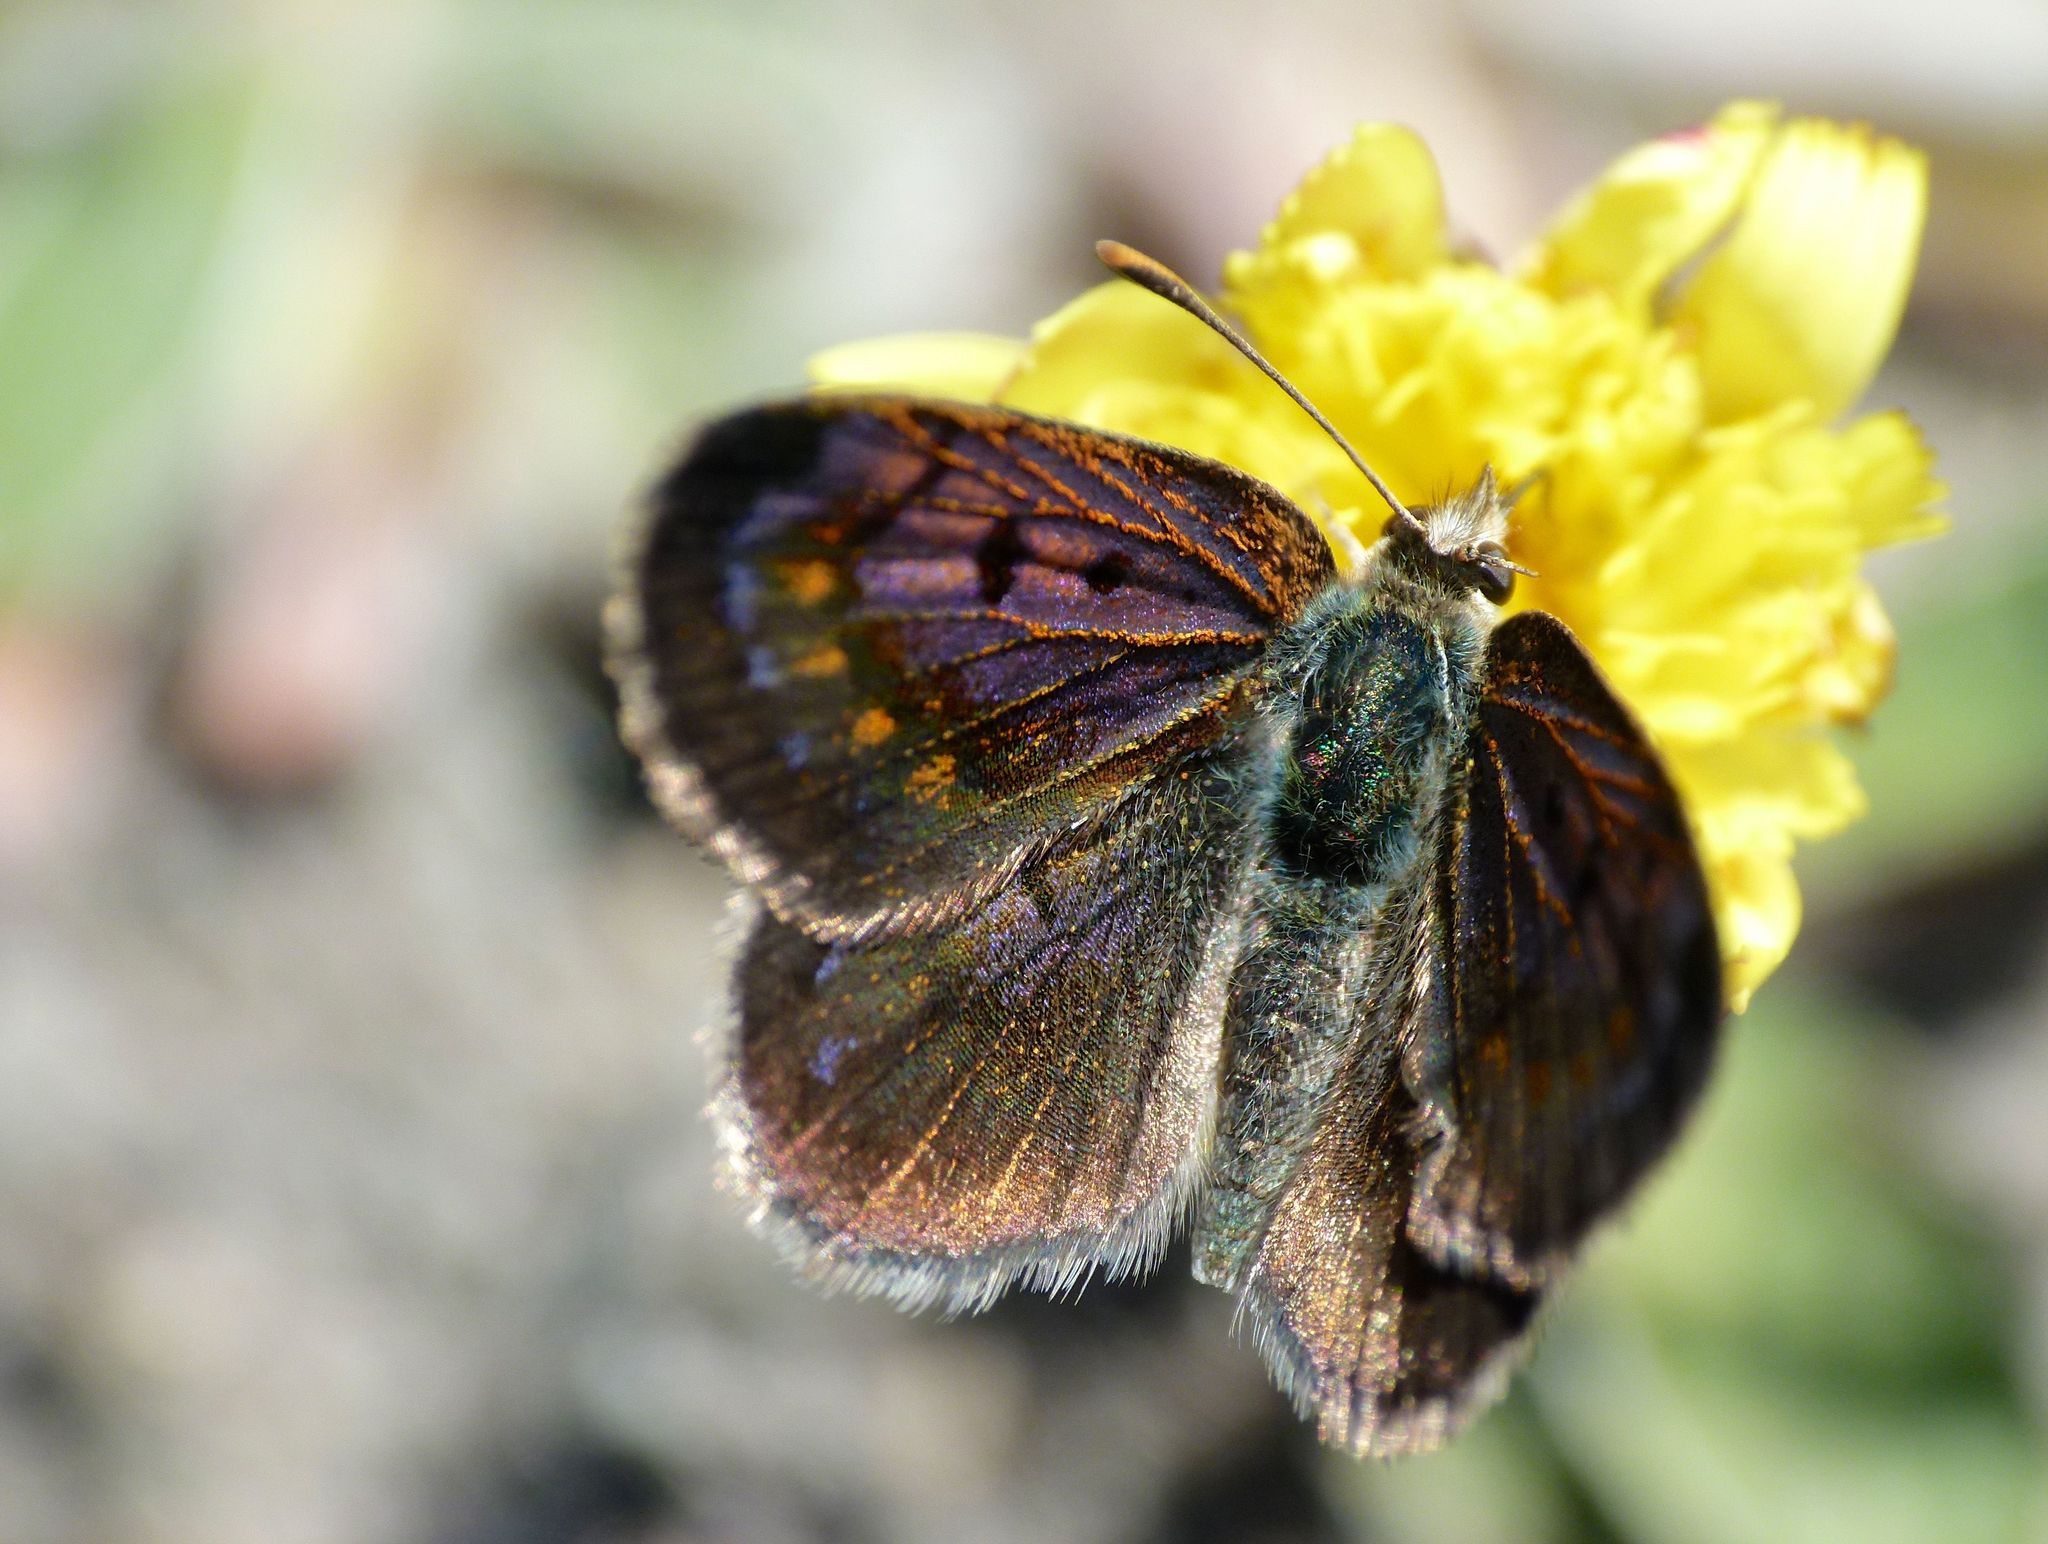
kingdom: Animalia
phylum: Arthropoda
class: Insecta
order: Lepidoptera
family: Lycaenidae
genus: Lycaena
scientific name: Lycaena boldenarum
